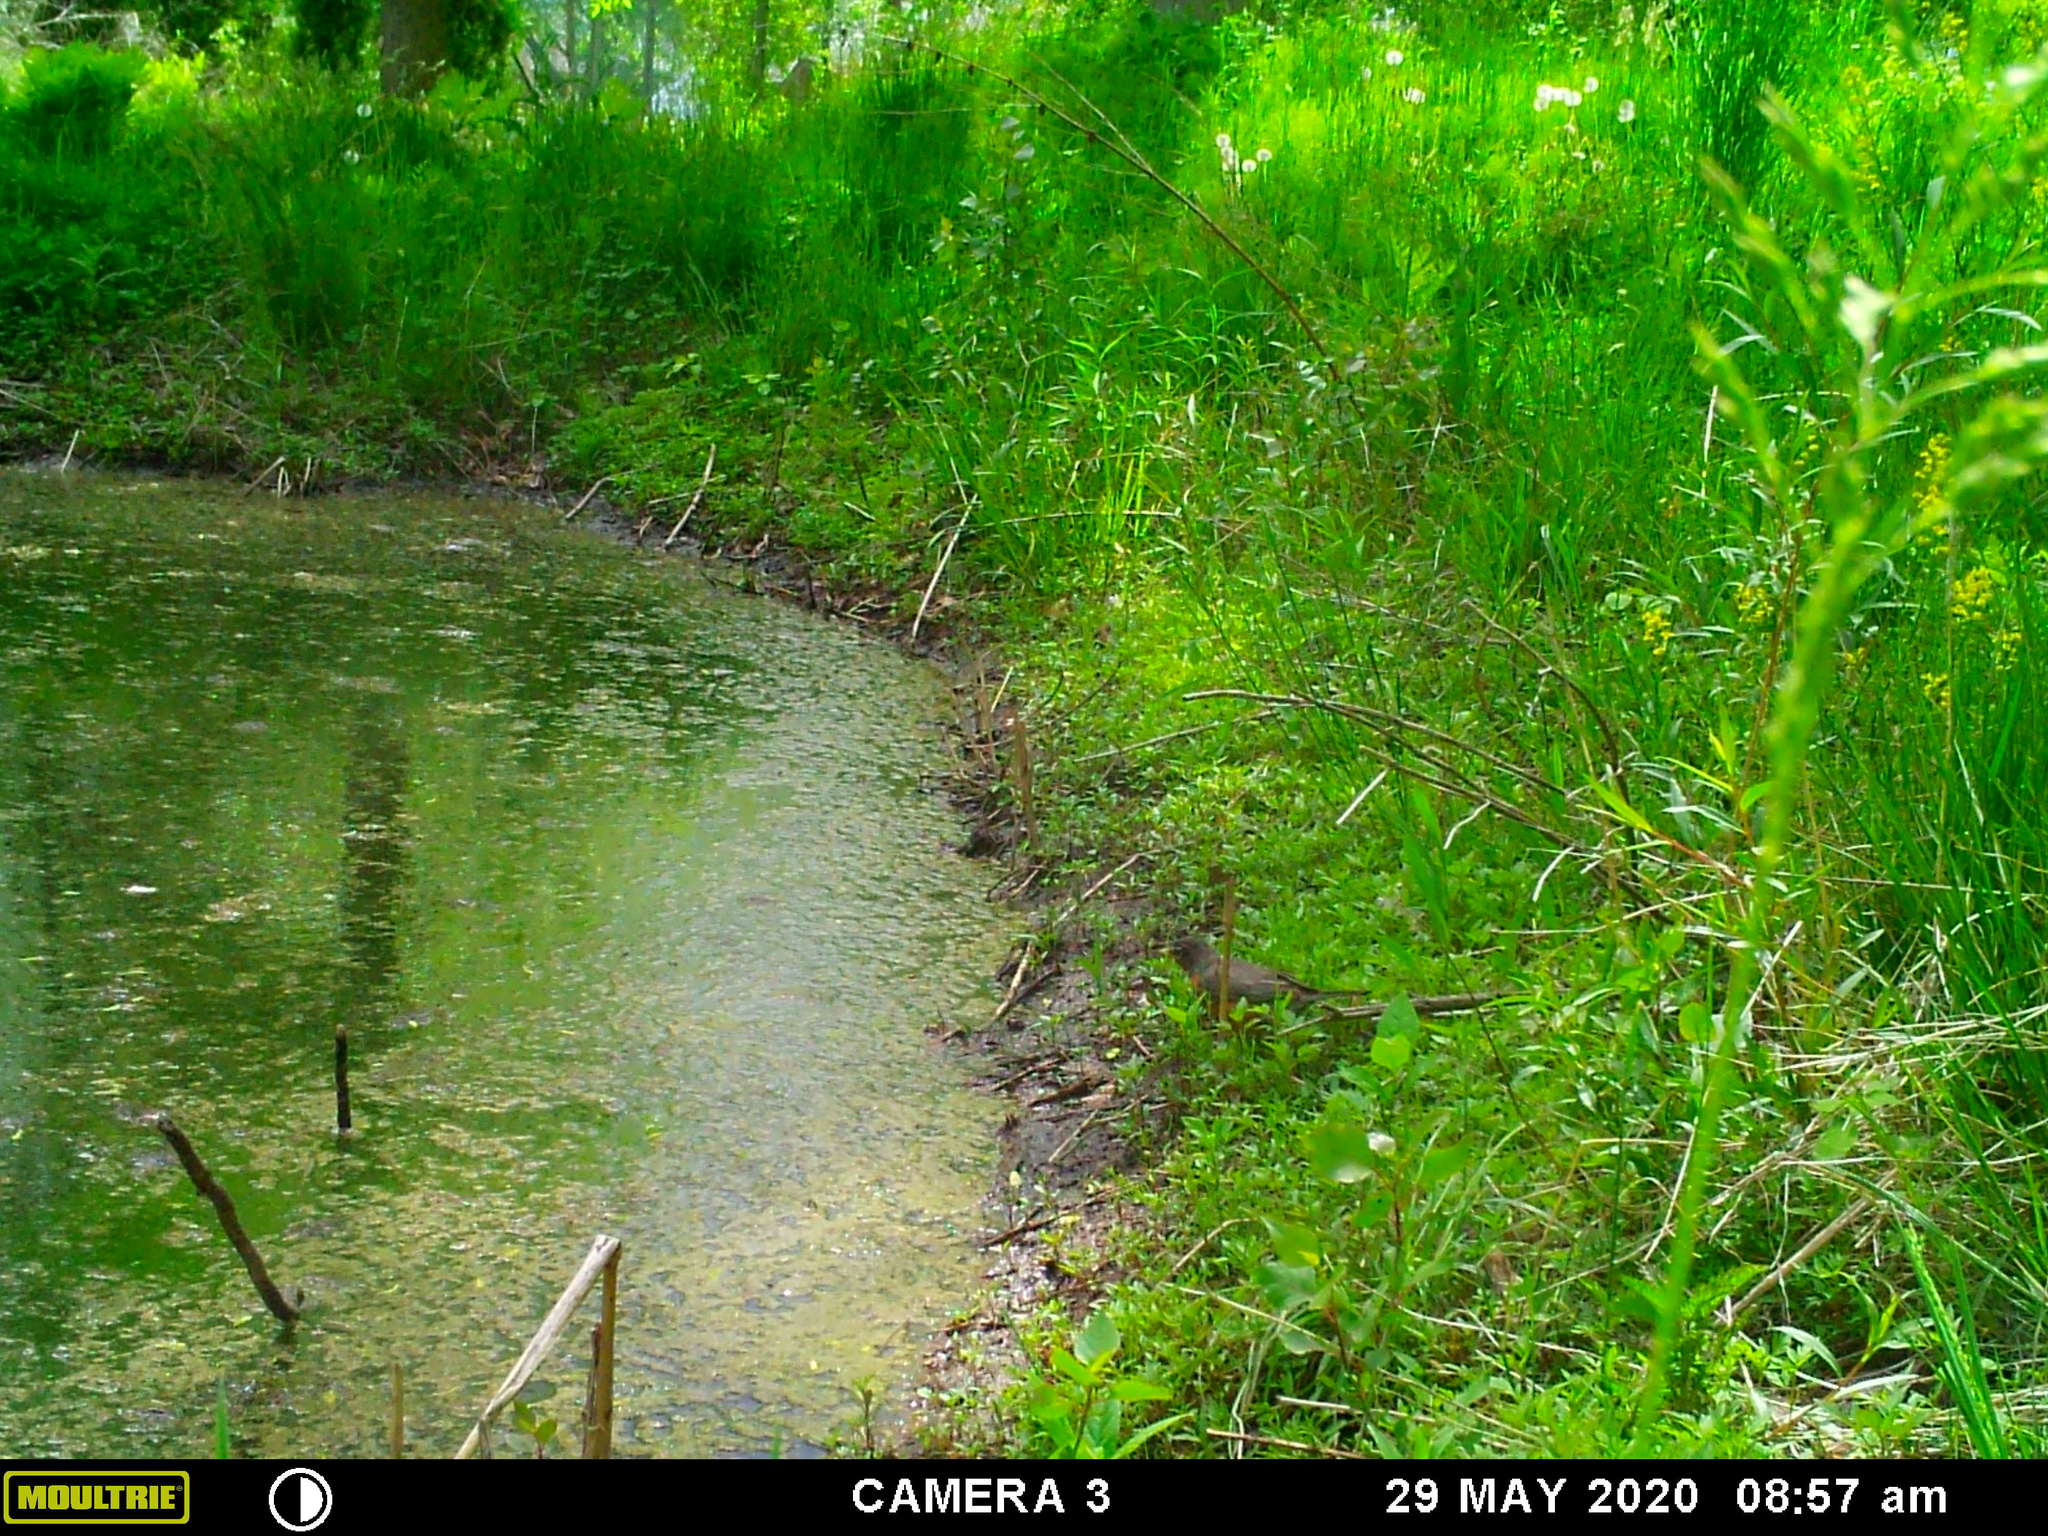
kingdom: Animalia
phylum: Chordata
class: Aves
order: Passeriformes
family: Turdidae
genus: Turdus
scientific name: Turdus migratorius
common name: American robin
